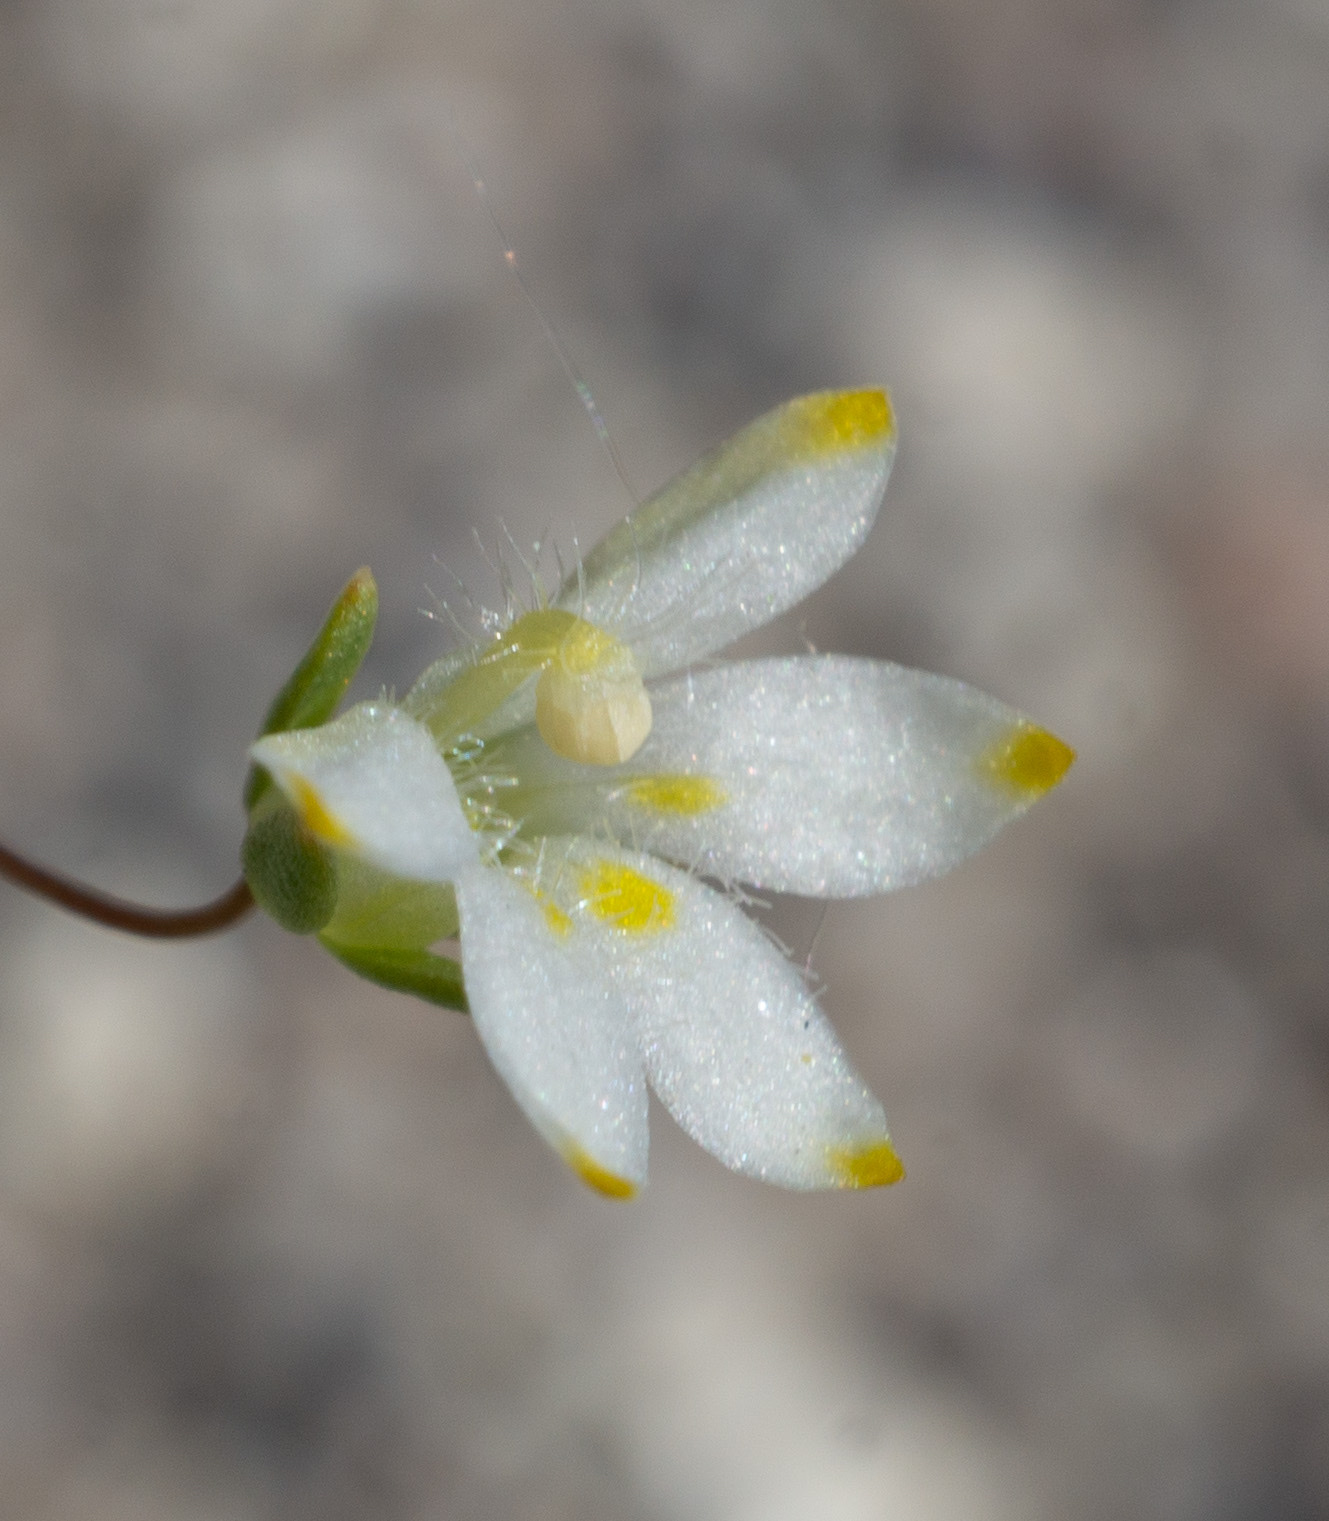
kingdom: Plantae
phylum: Tracheophyta
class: Magnoliopsida
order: Asterales
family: Campanulaceae
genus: Nemacladus
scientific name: Nemacladus matsonii
